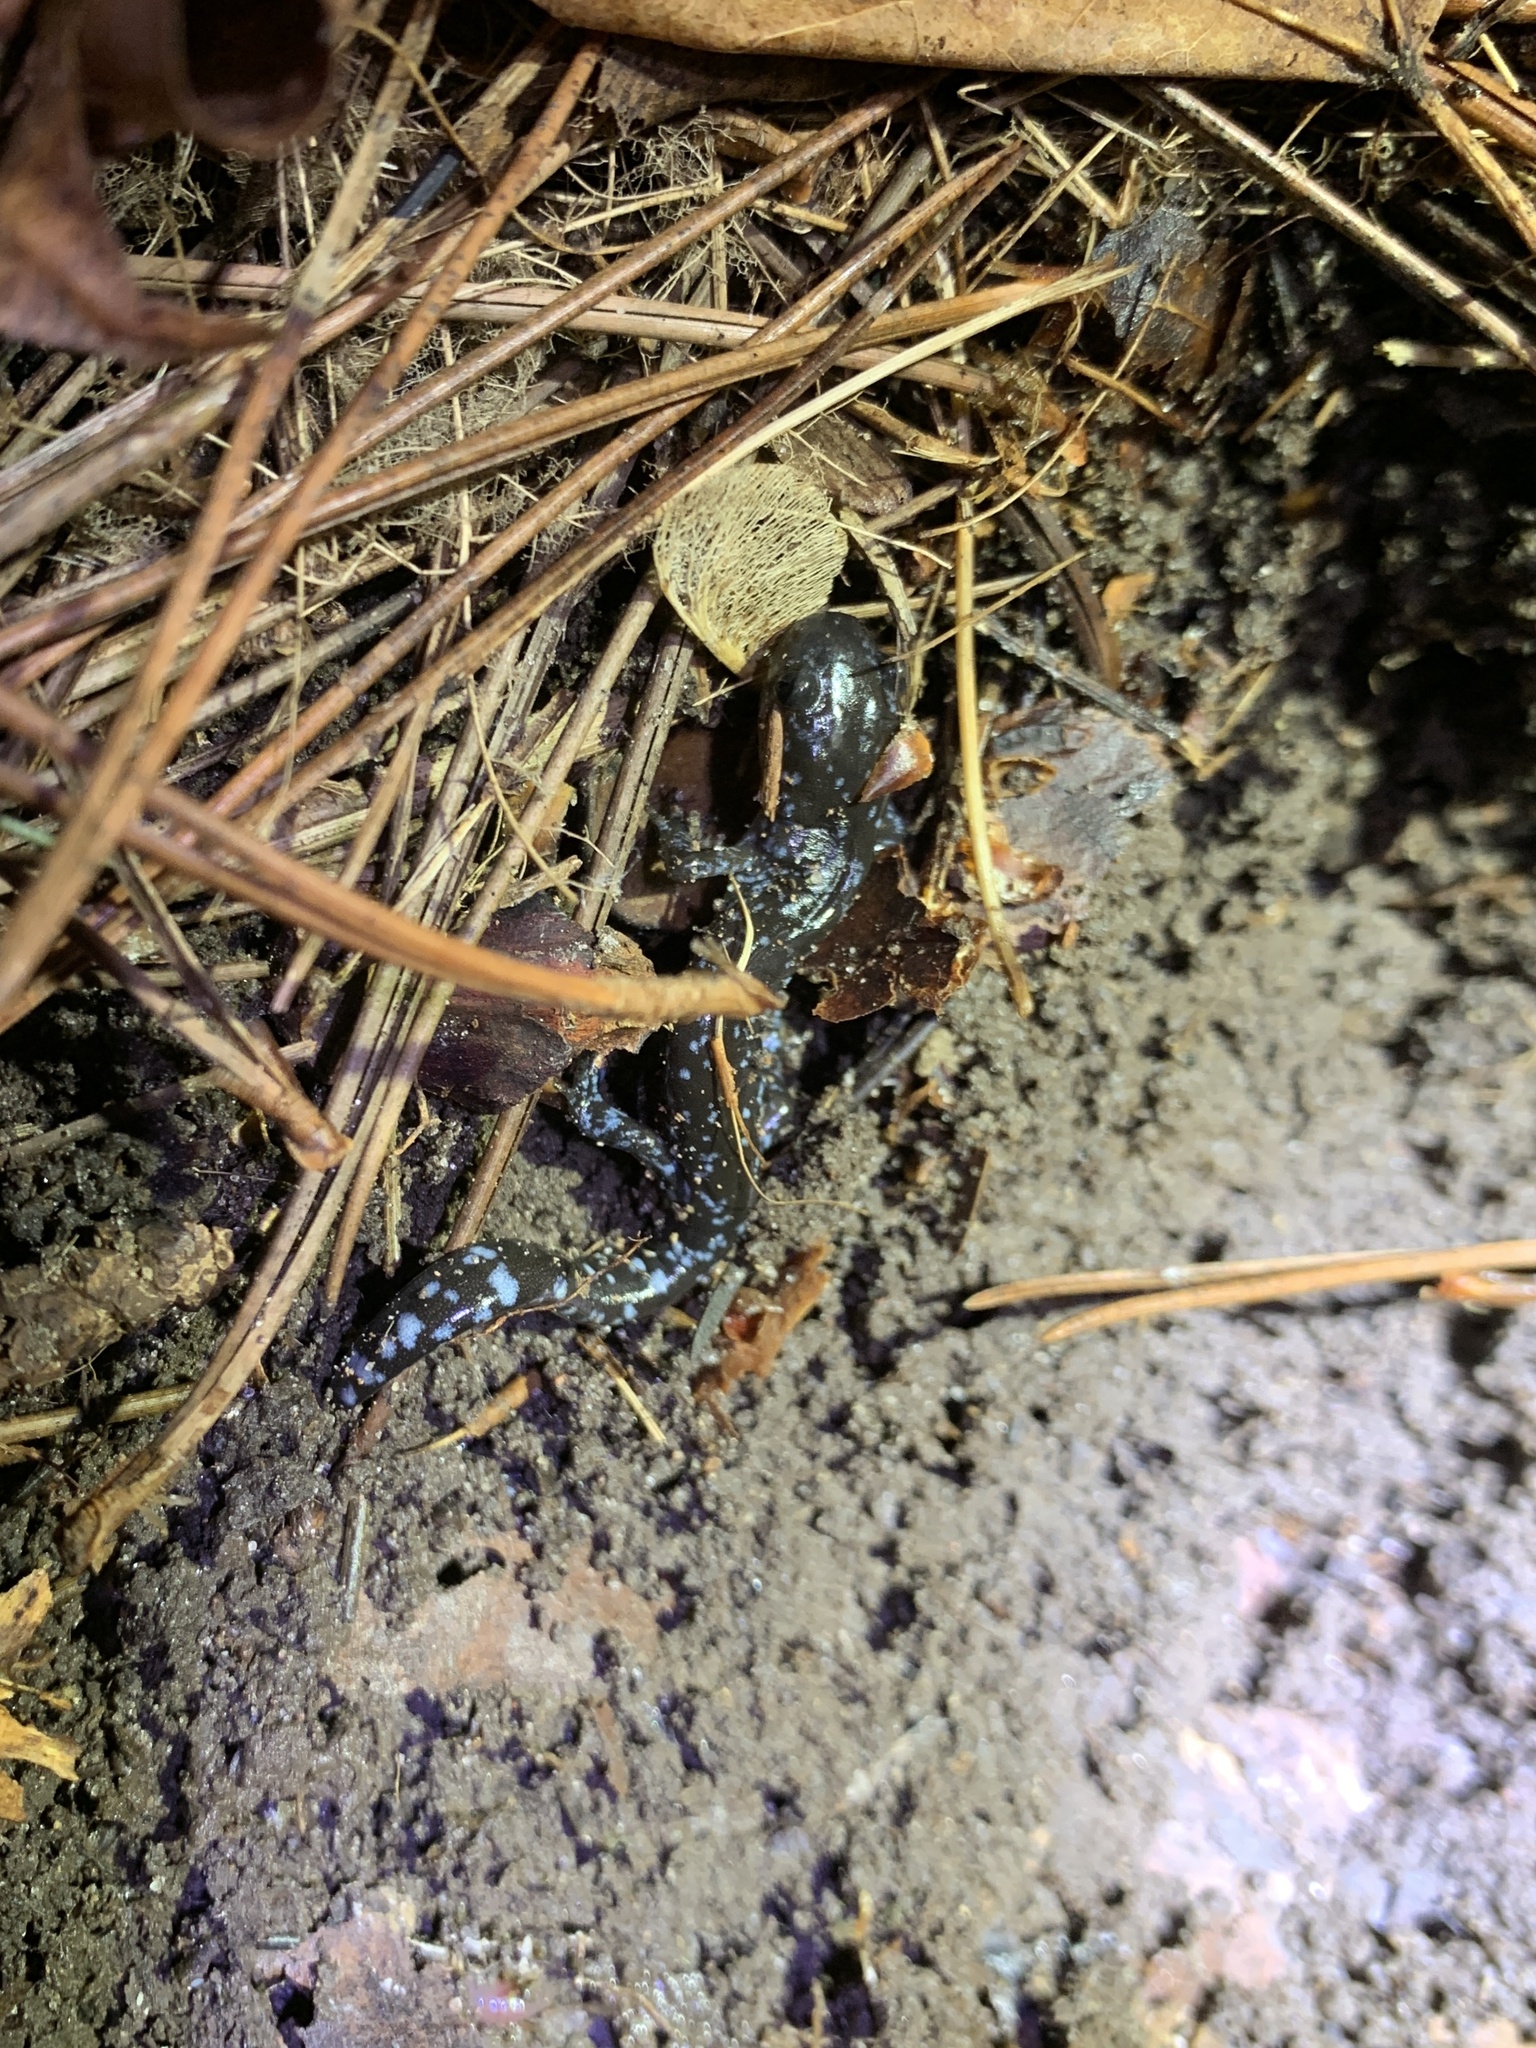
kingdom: Animalia
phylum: Chordata
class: Amphibia
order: Caudata
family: Ambystomatidae
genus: Ambystoma
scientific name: Ambystoma laterale
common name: Blue-spotted salamander
